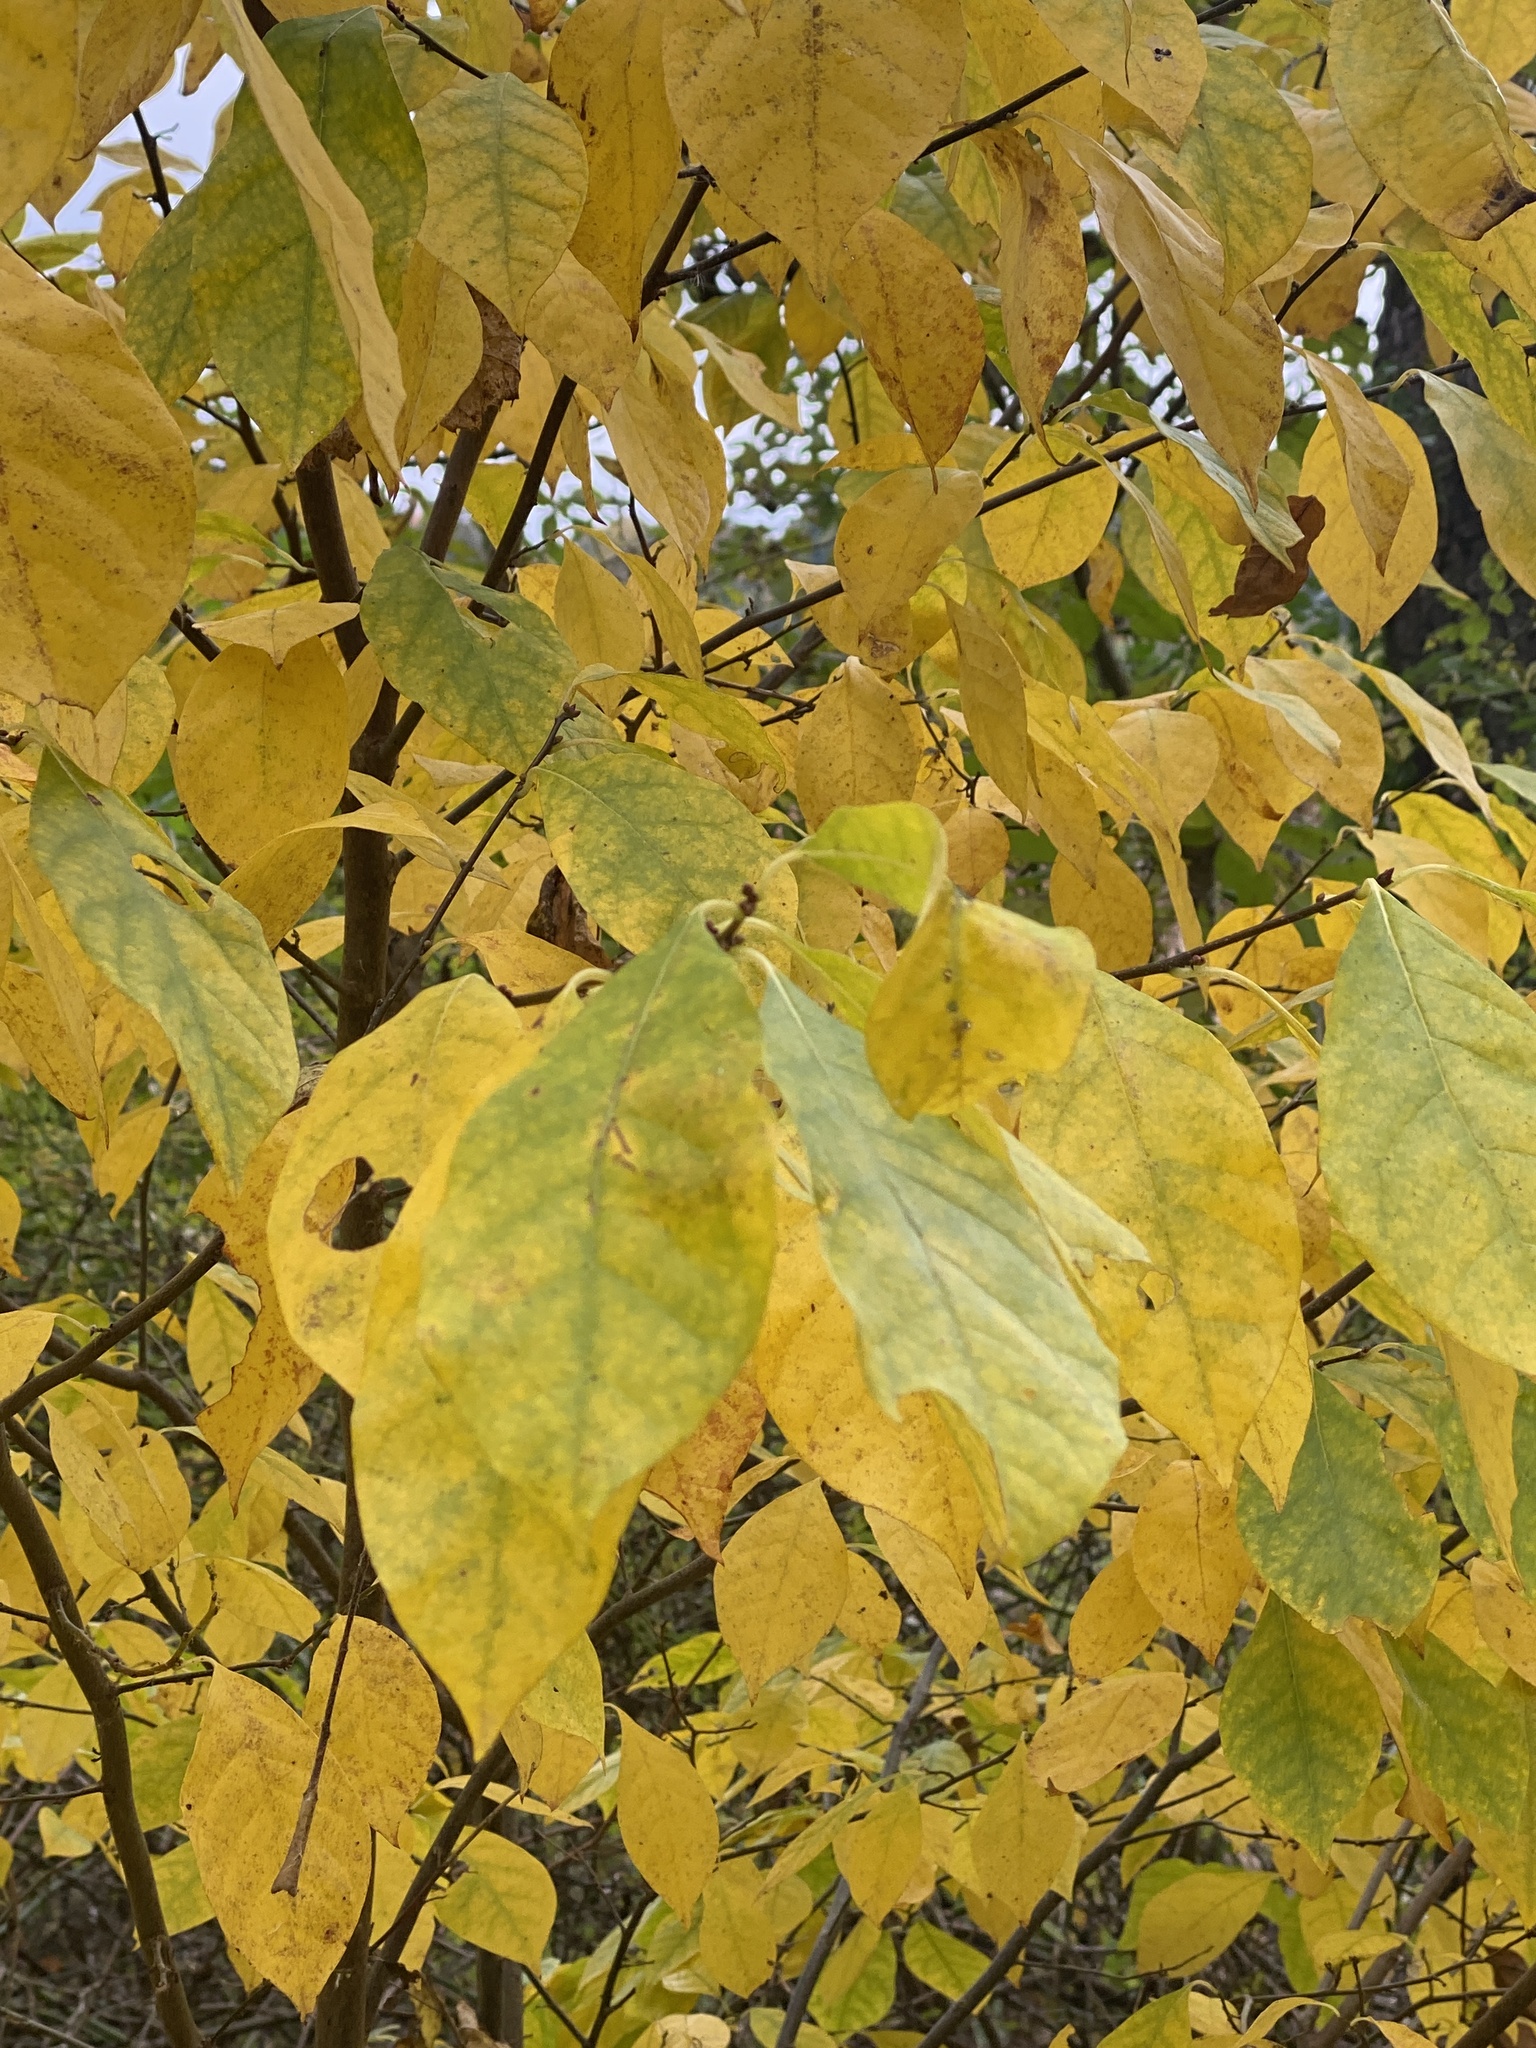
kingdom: Plantae
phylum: Tracheophyta
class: Magnoliopsida
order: Laurales
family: Lauraceae
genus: Lindera
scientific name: Lindera benzoin
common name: Spicebush
